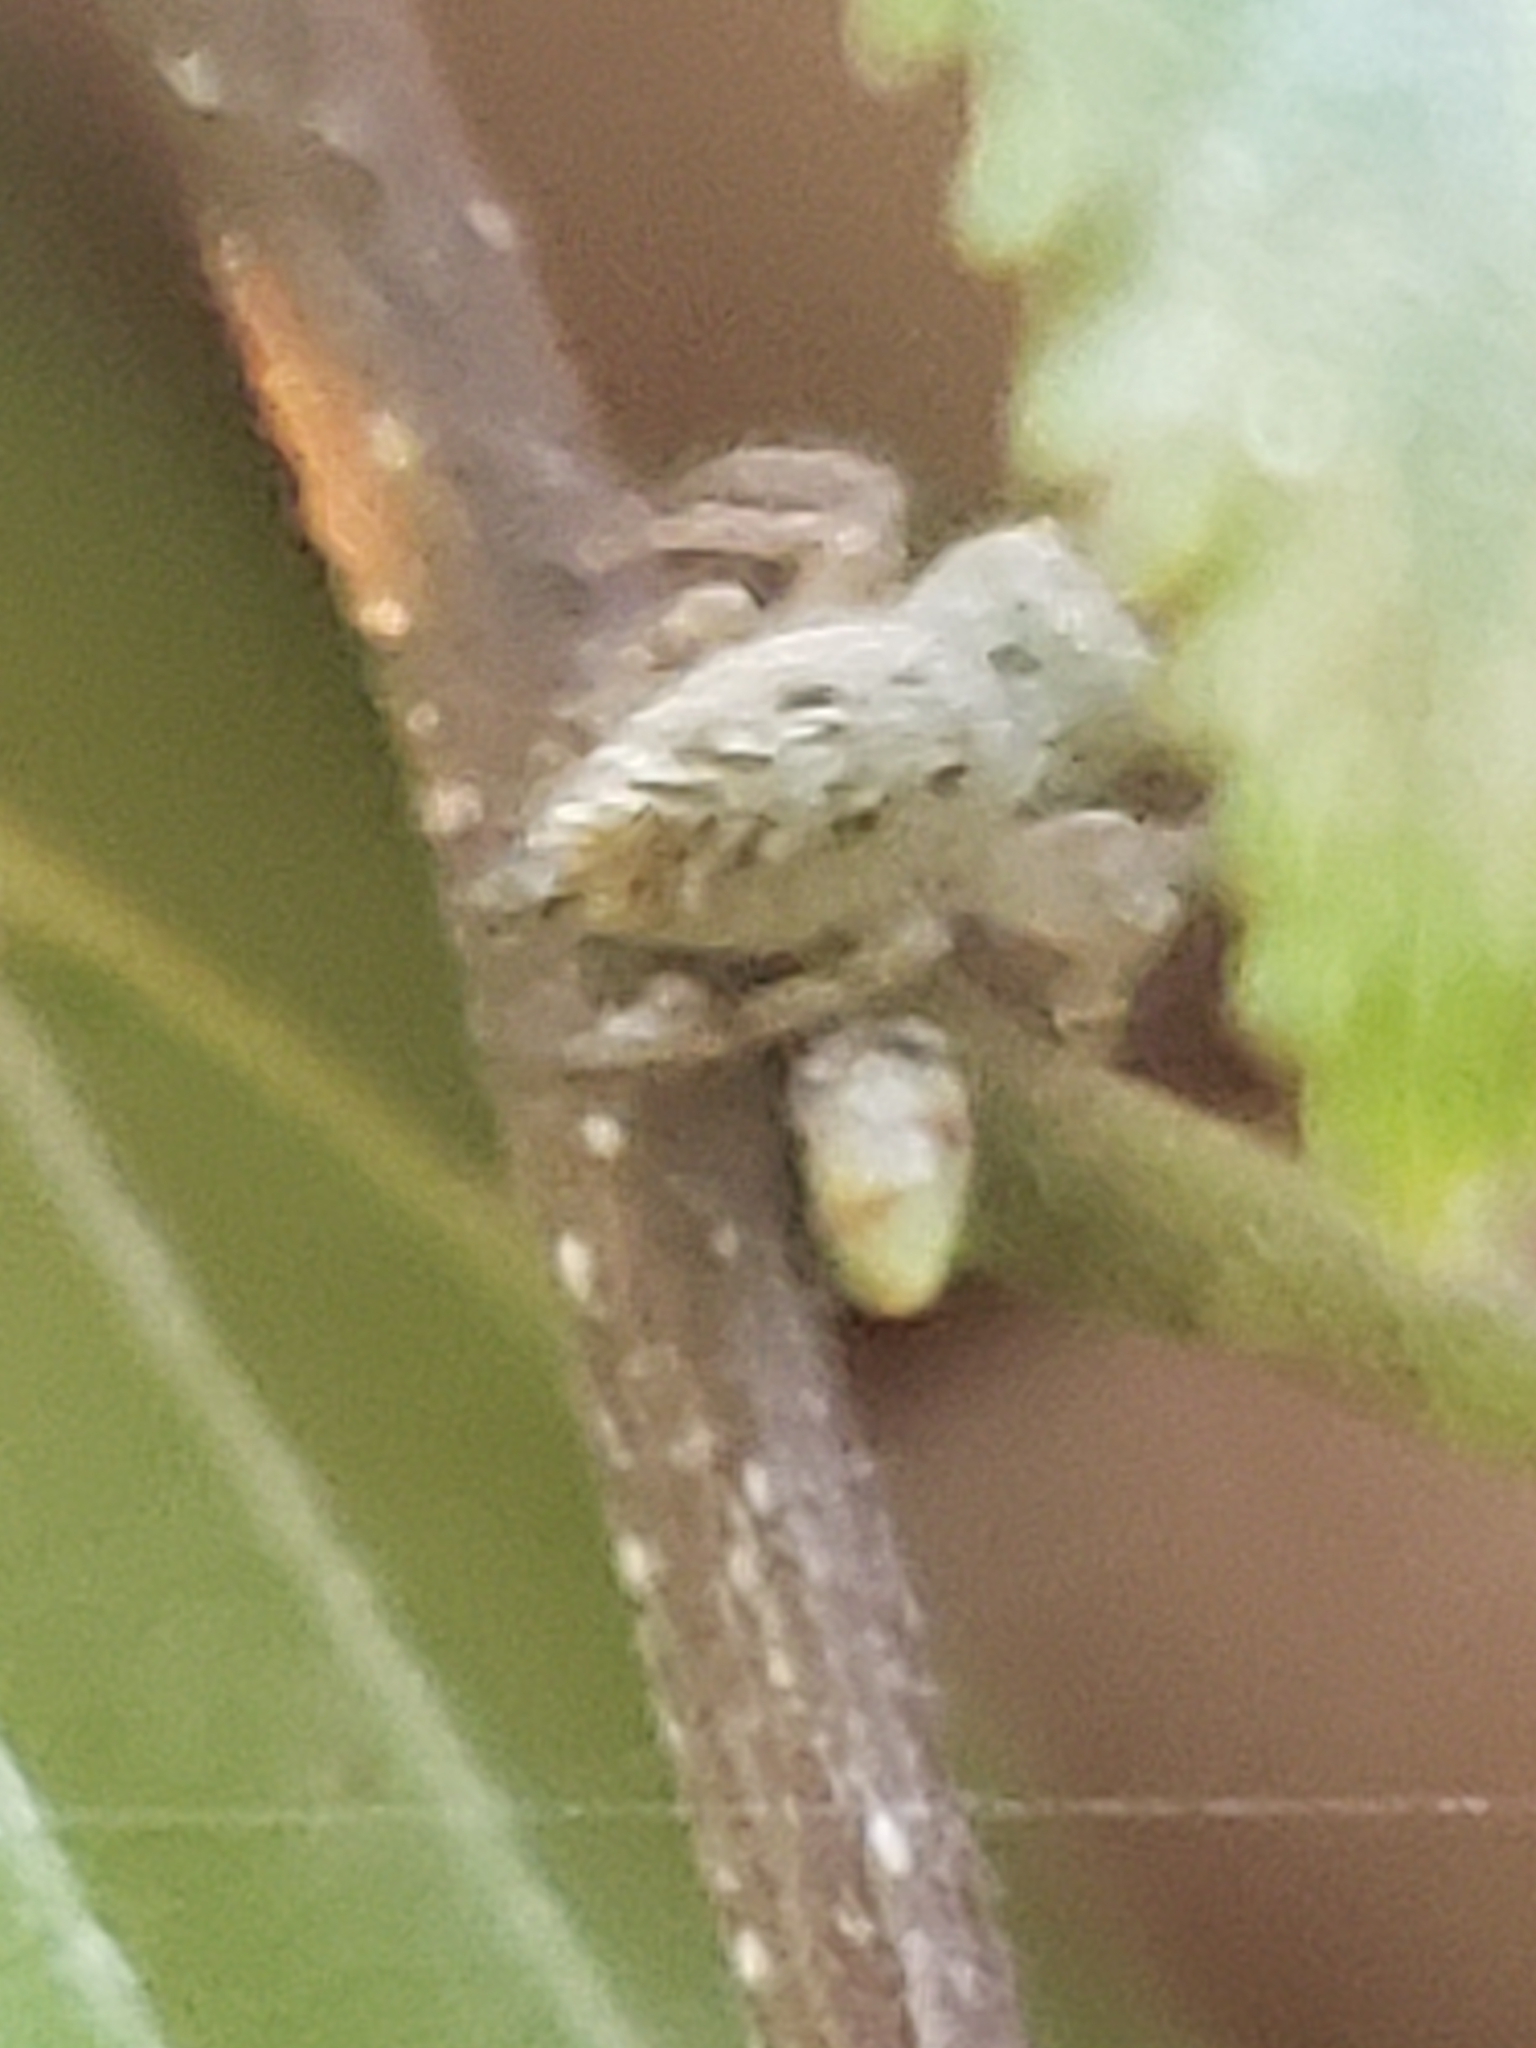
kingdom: Animalia
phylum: Arthropoda
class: Arachnida
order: Araneae
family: Salticidae
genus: Eris
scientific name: Eris militaris
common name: Bronze jumper
